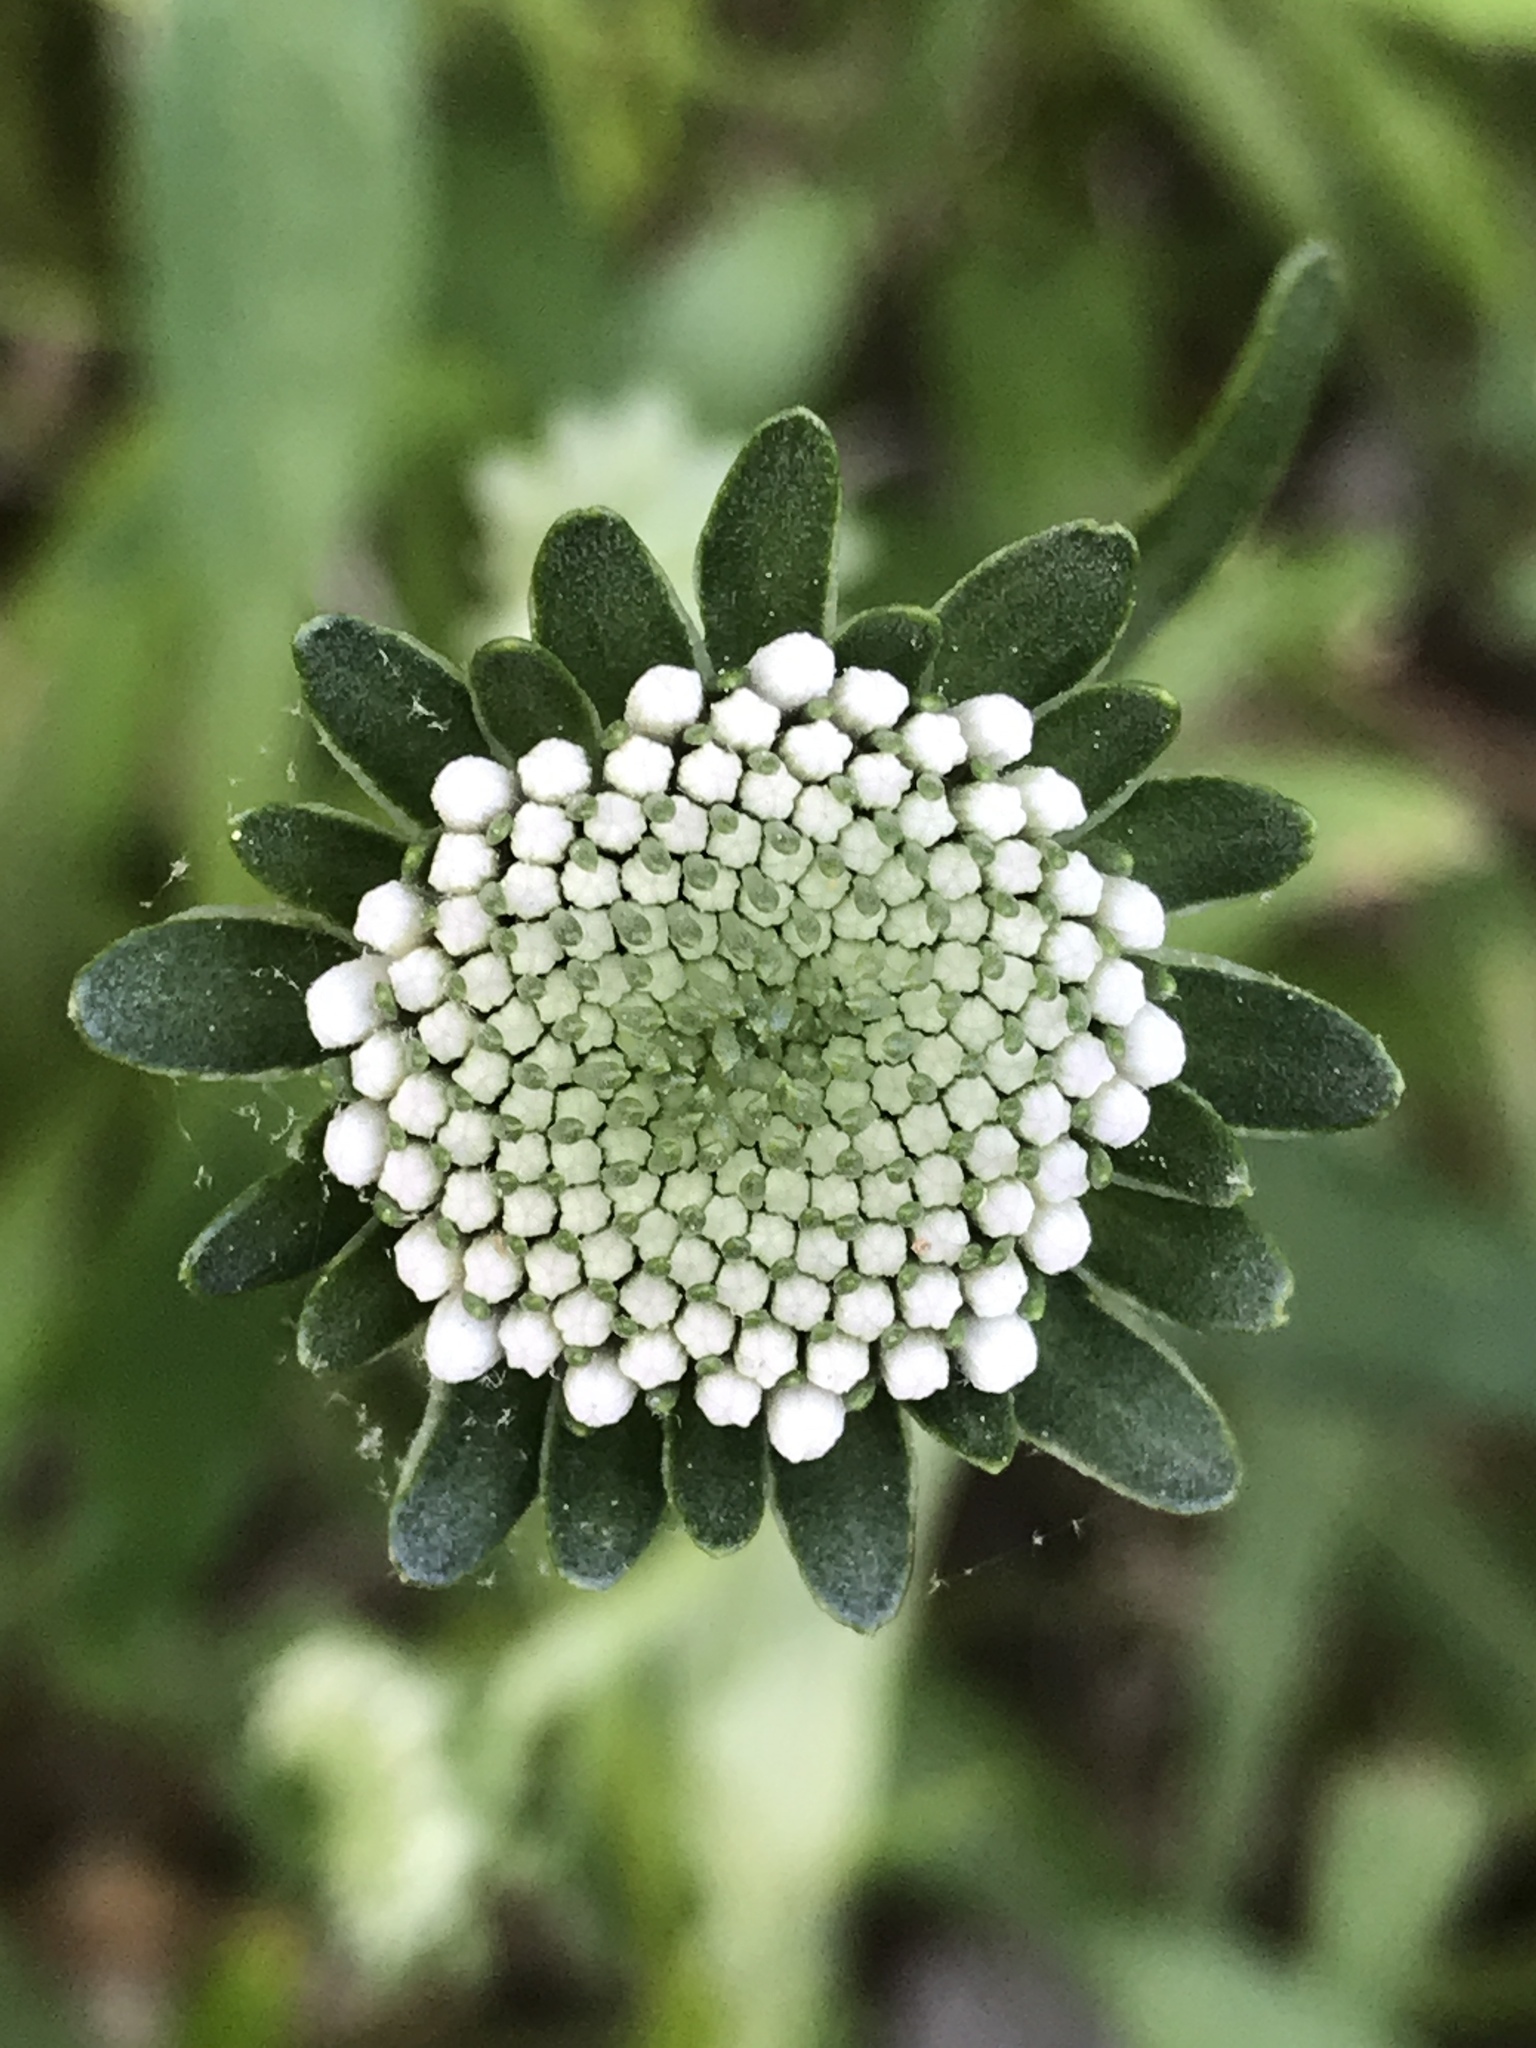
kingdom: Plantae
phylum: Tracheophyta
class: Magnoliopsida
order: Asterales
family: Asteraceae
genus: Marshallia
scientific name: Marshallia obovata
